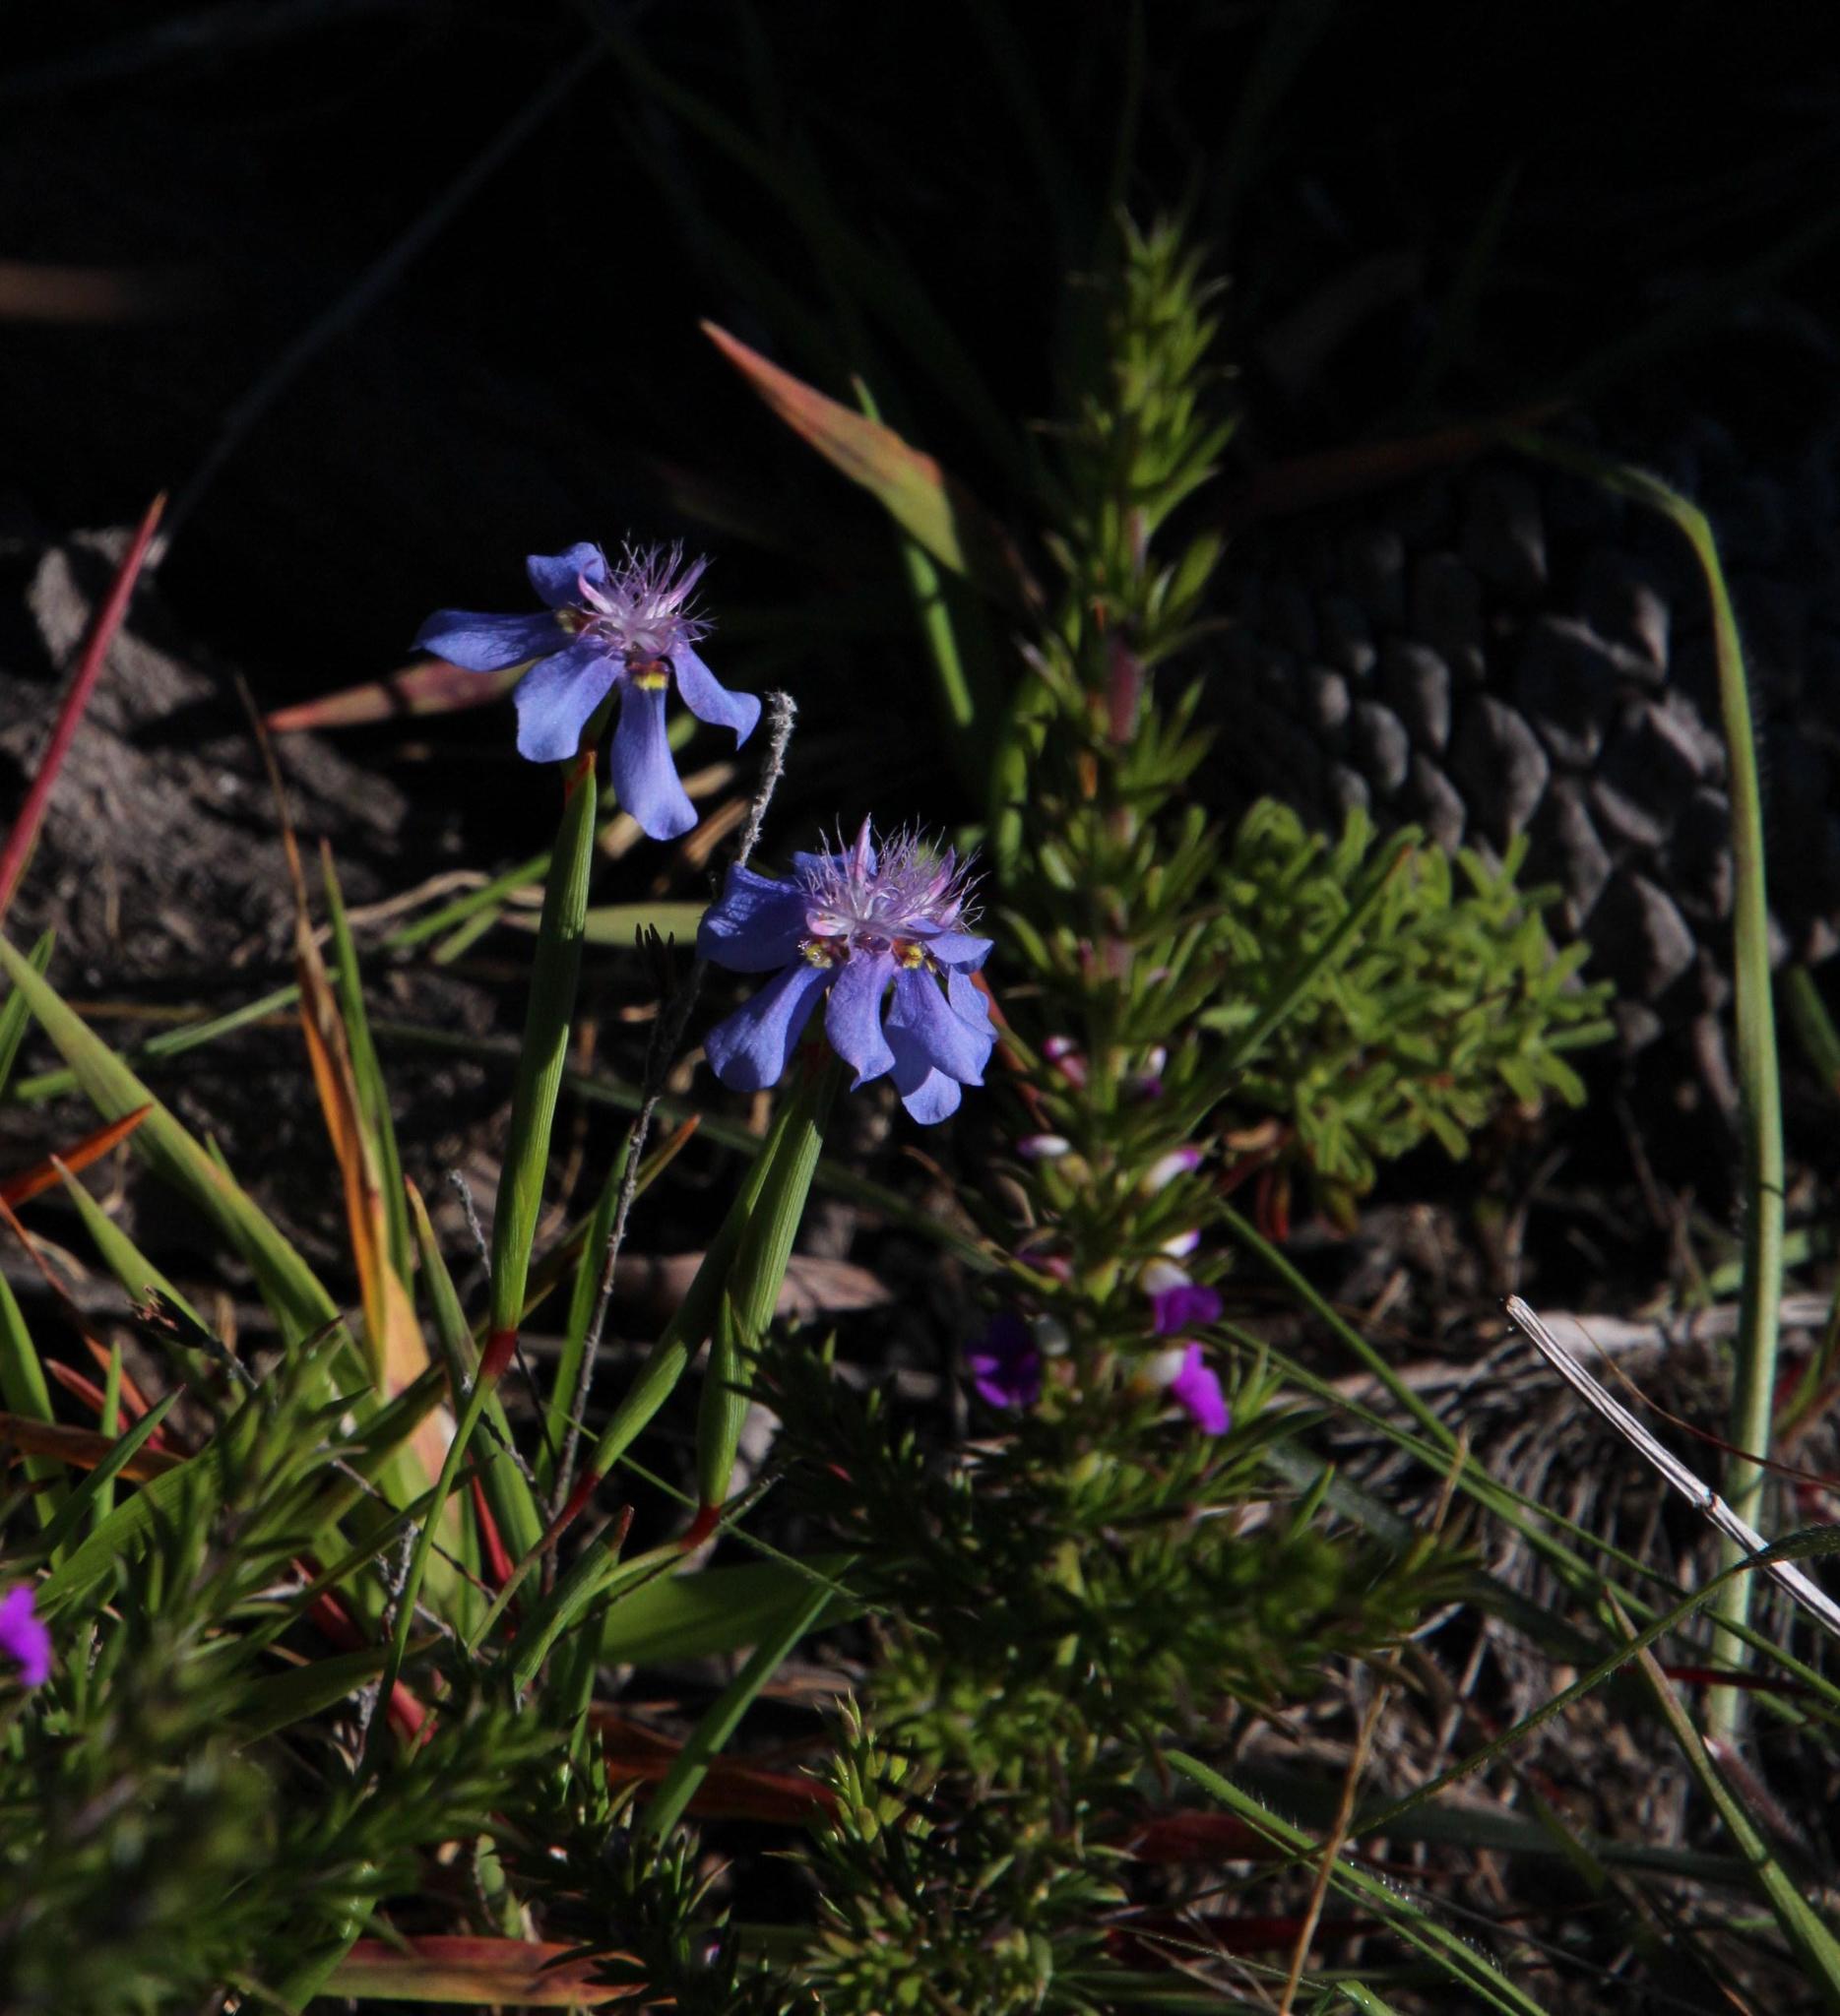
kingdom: Plantae
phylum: Tracheophyta
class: Liliopsida
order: Asparagales
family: Iridaceae
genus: Moraea
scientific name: Moraea lugubris
